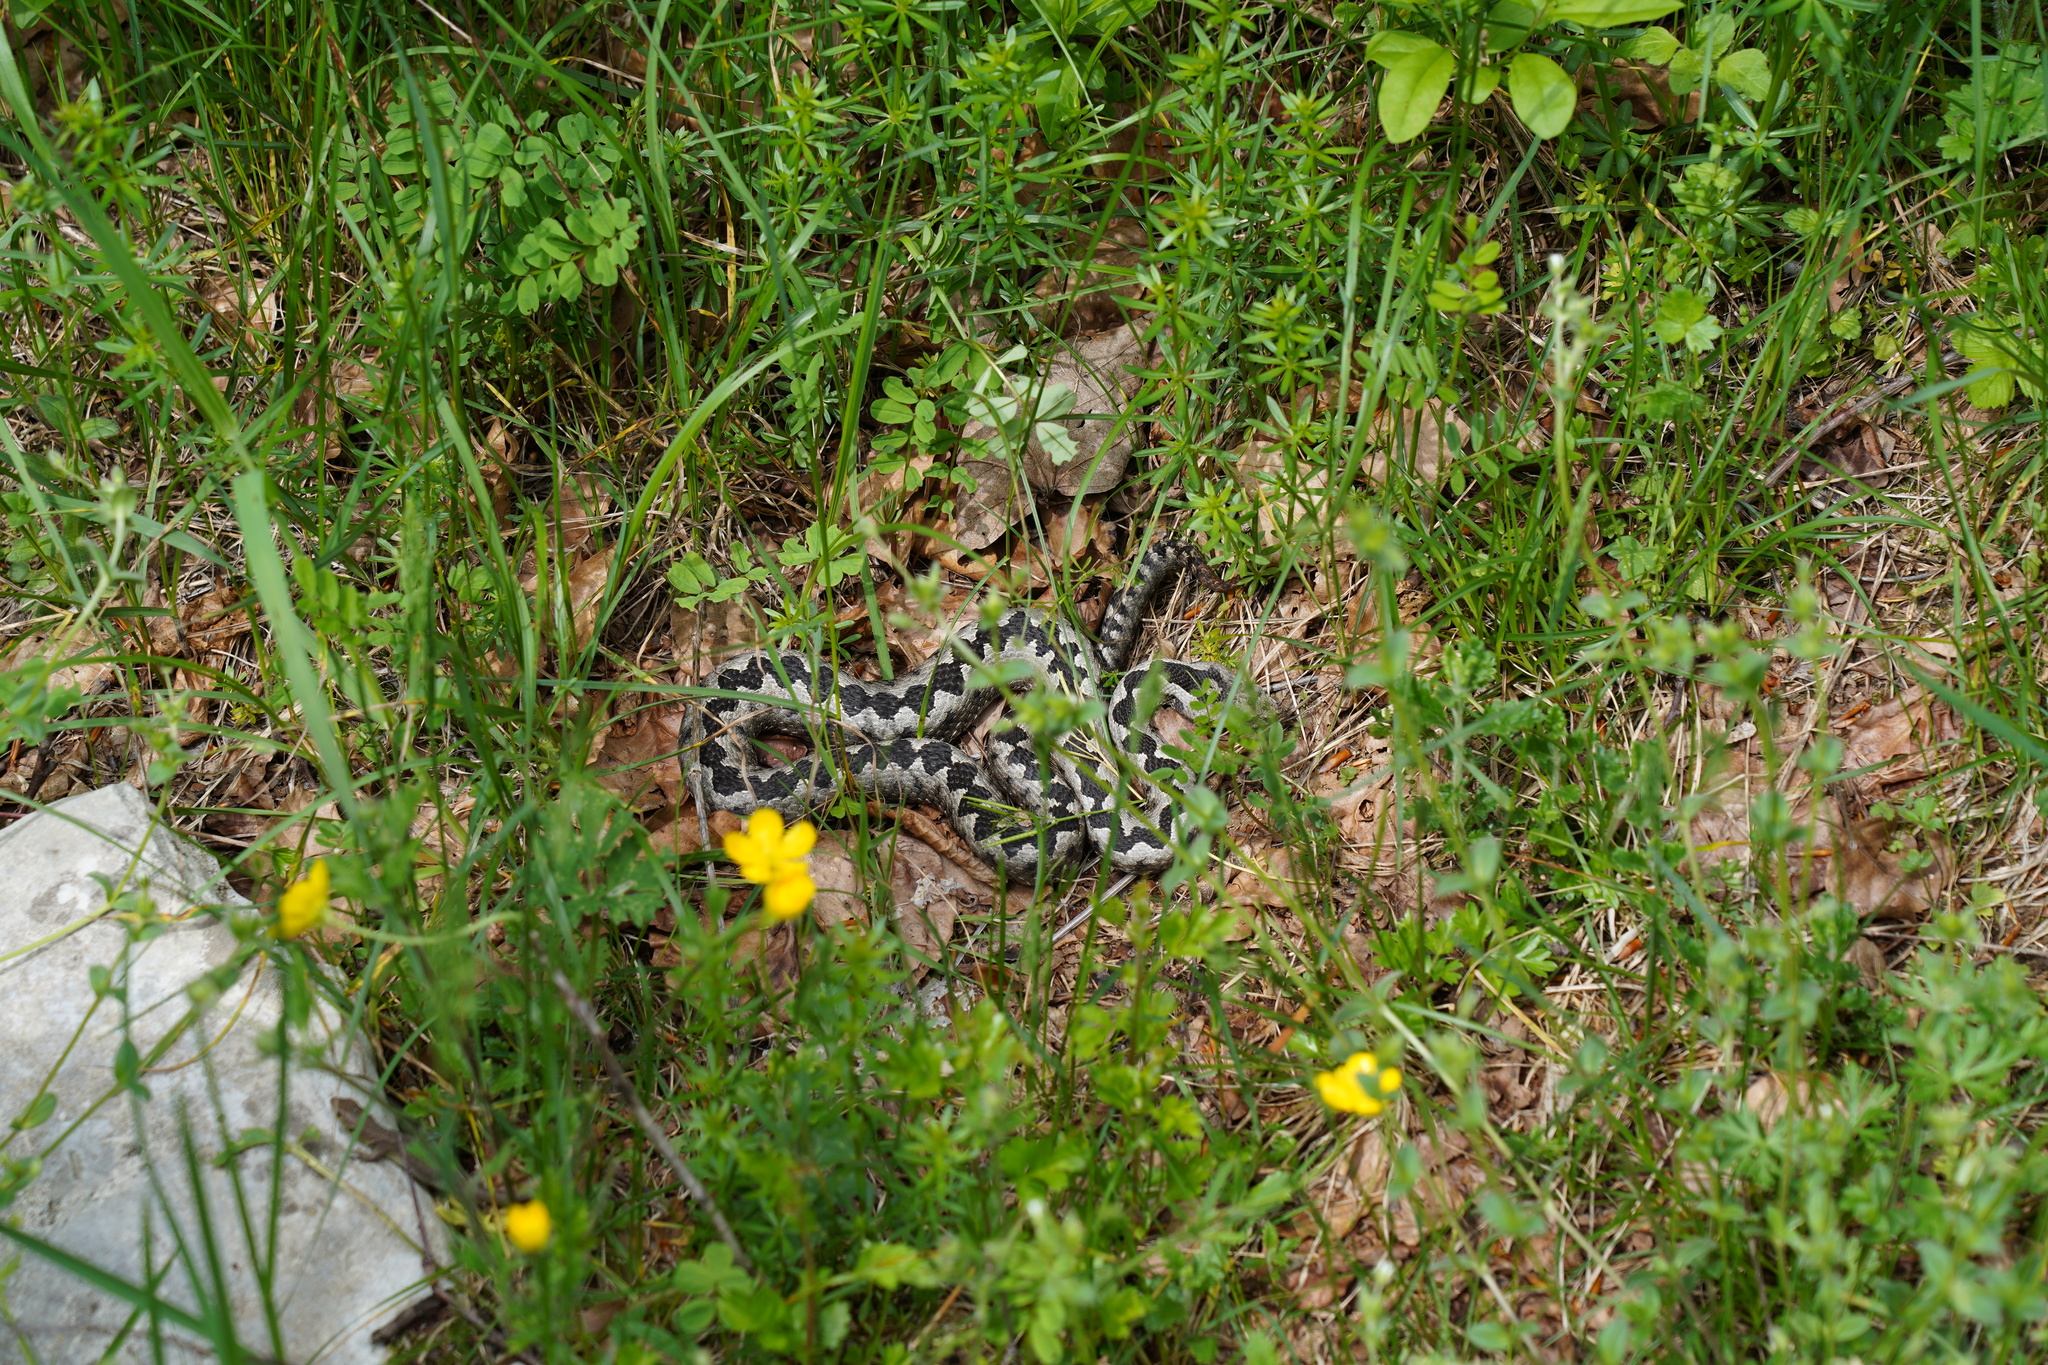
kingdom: Animalia
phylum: Chordata
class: Squamata
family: Viperidae
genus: Vipera
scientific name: Vipera ammodytes
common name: Sand viper
